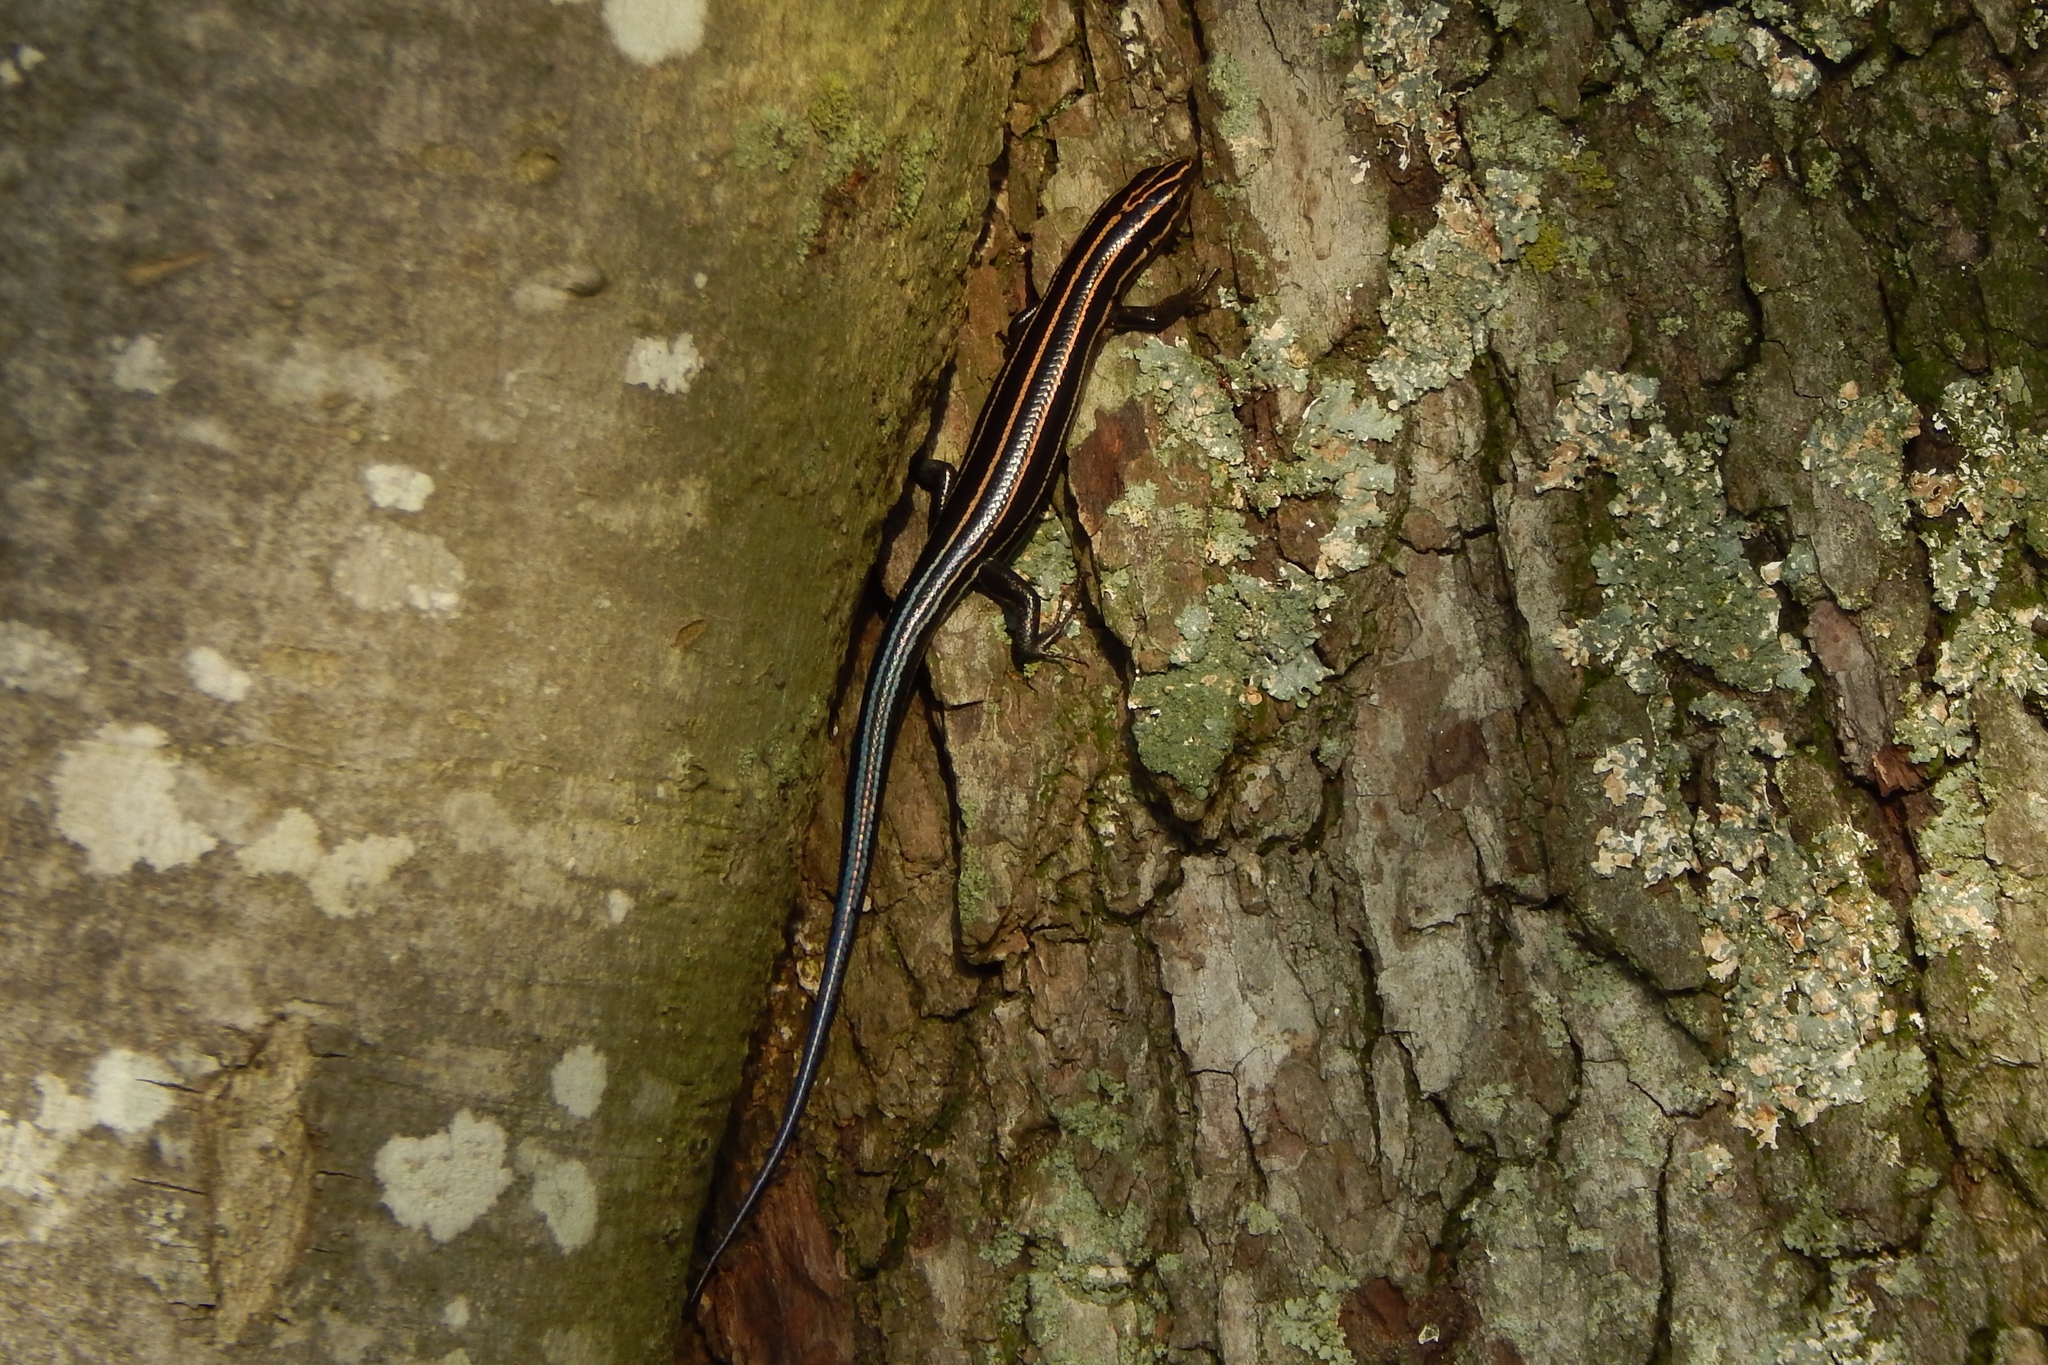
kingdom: Animalia
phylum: Chordata
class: Squamata
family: Scincidae
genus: Plestiodon
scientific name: Plestiodon fasciatus
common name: Five-lined skink
